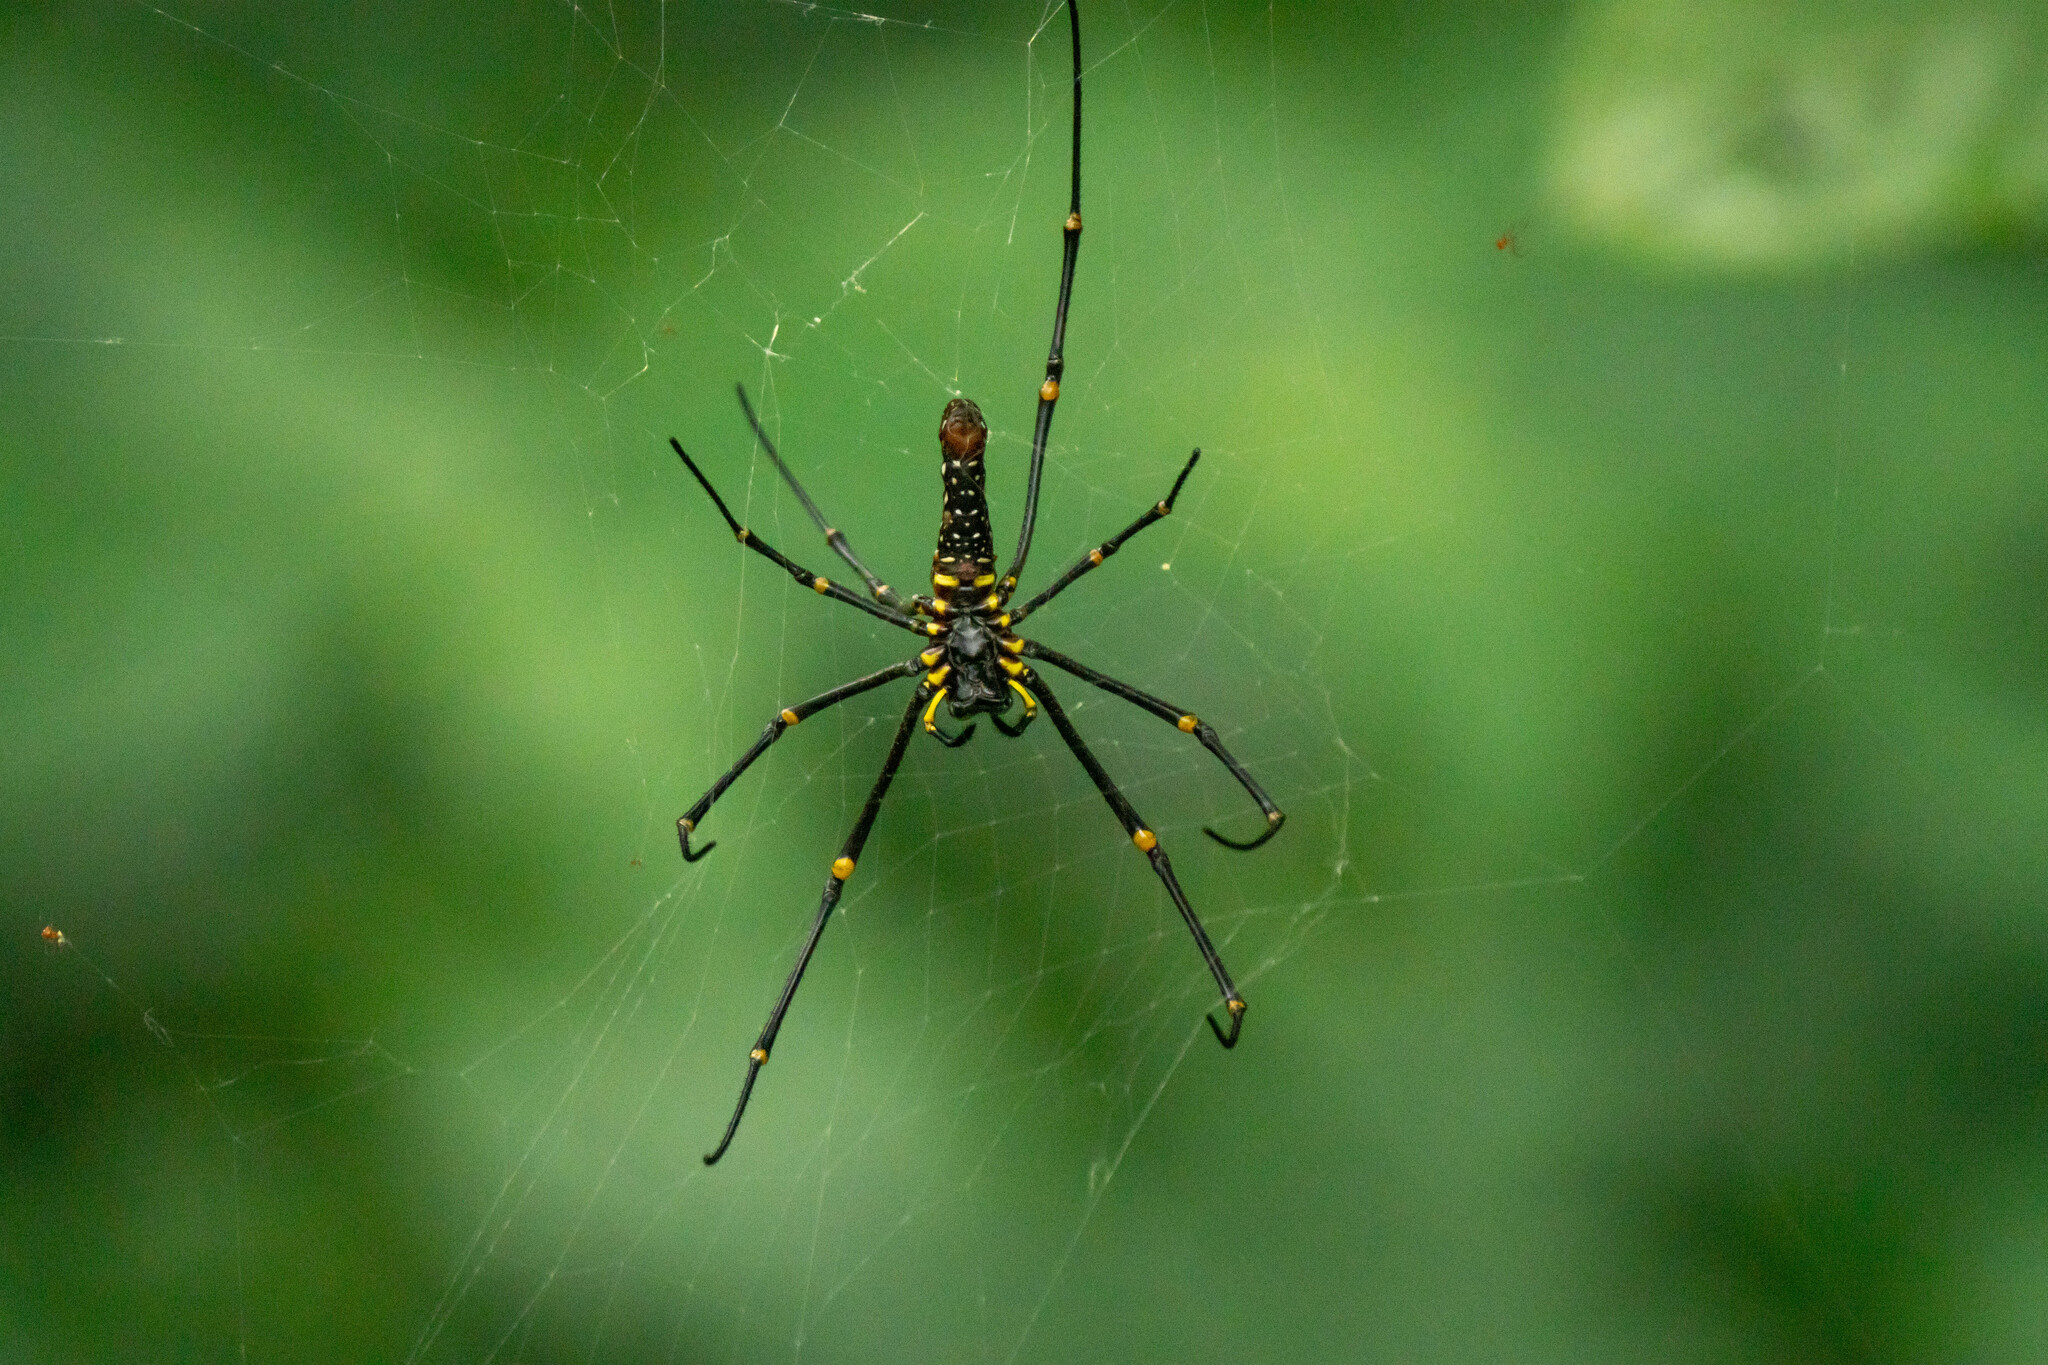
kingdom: Animalia
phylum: Arthropoda
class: Arachnida
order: Araneae
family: Araneidae
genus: Nephila
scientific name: Nephila pilipes
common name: Giant golden orb weaver
